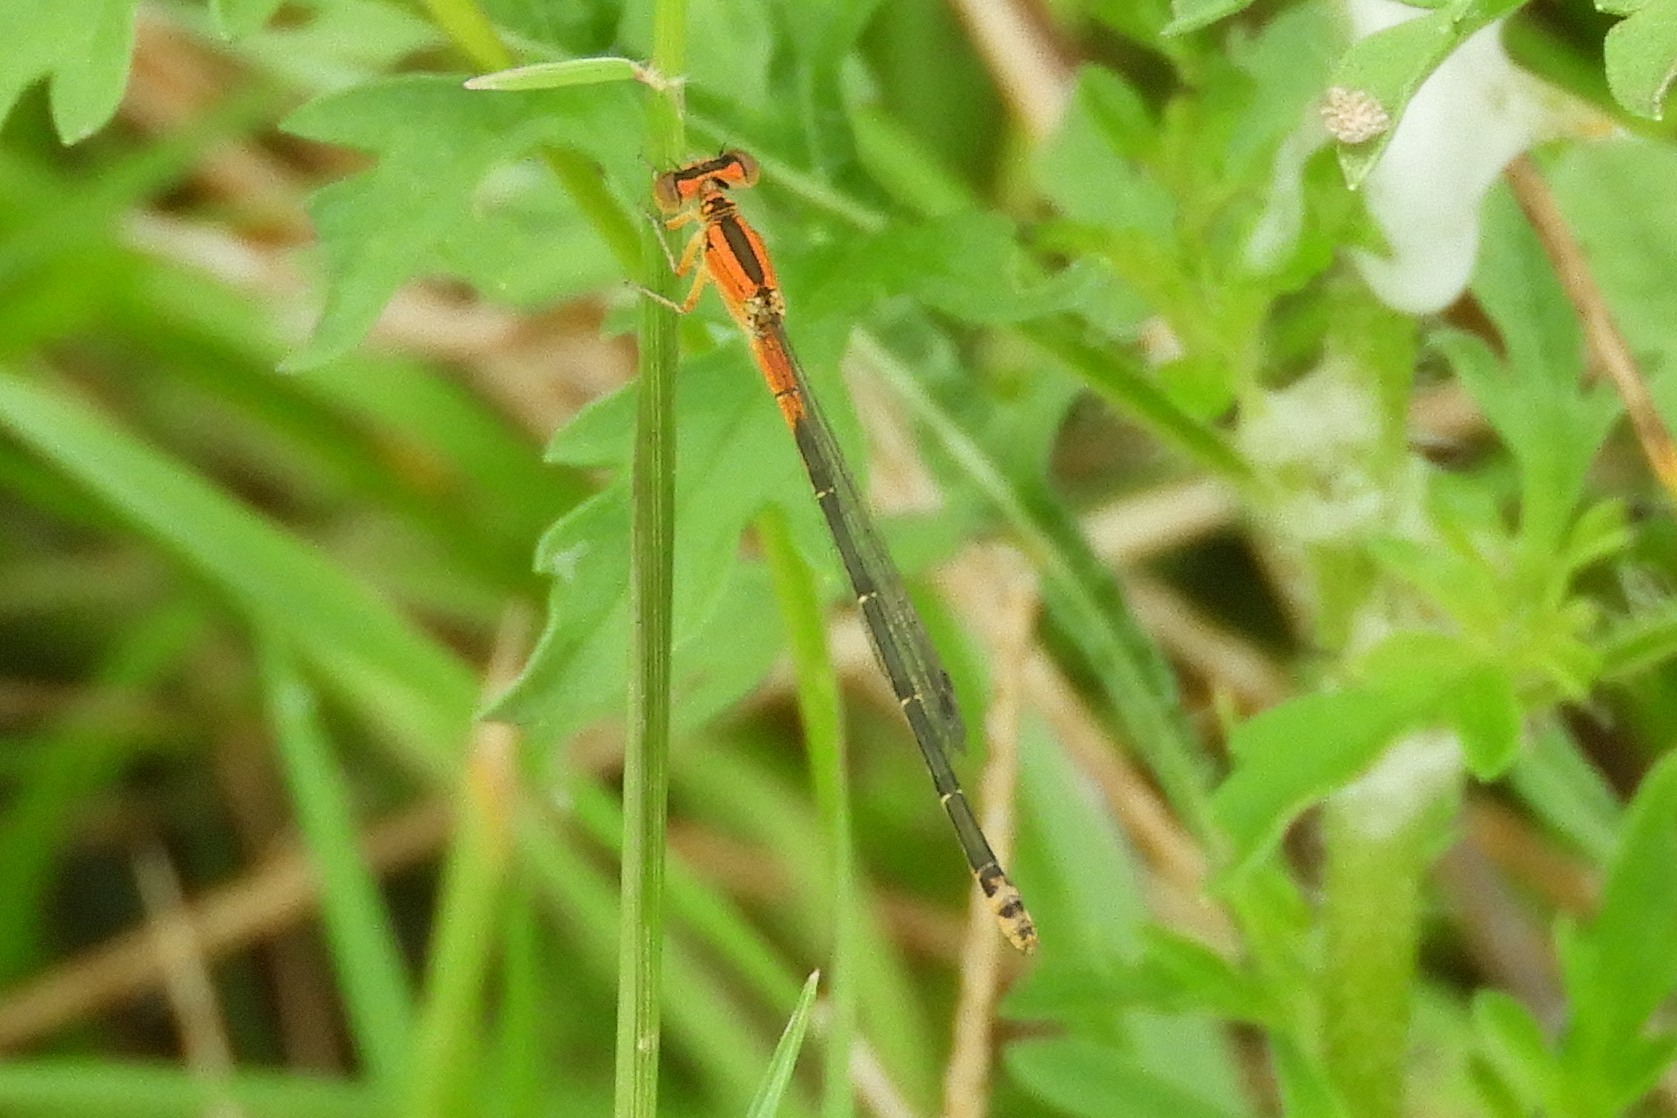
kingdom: Animalia
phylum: Arthropoda
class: Insecta
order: Odonata
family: Coenagrionidae
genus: Ischnura
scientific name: Ischnura verticalis
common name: Eastern forktail
